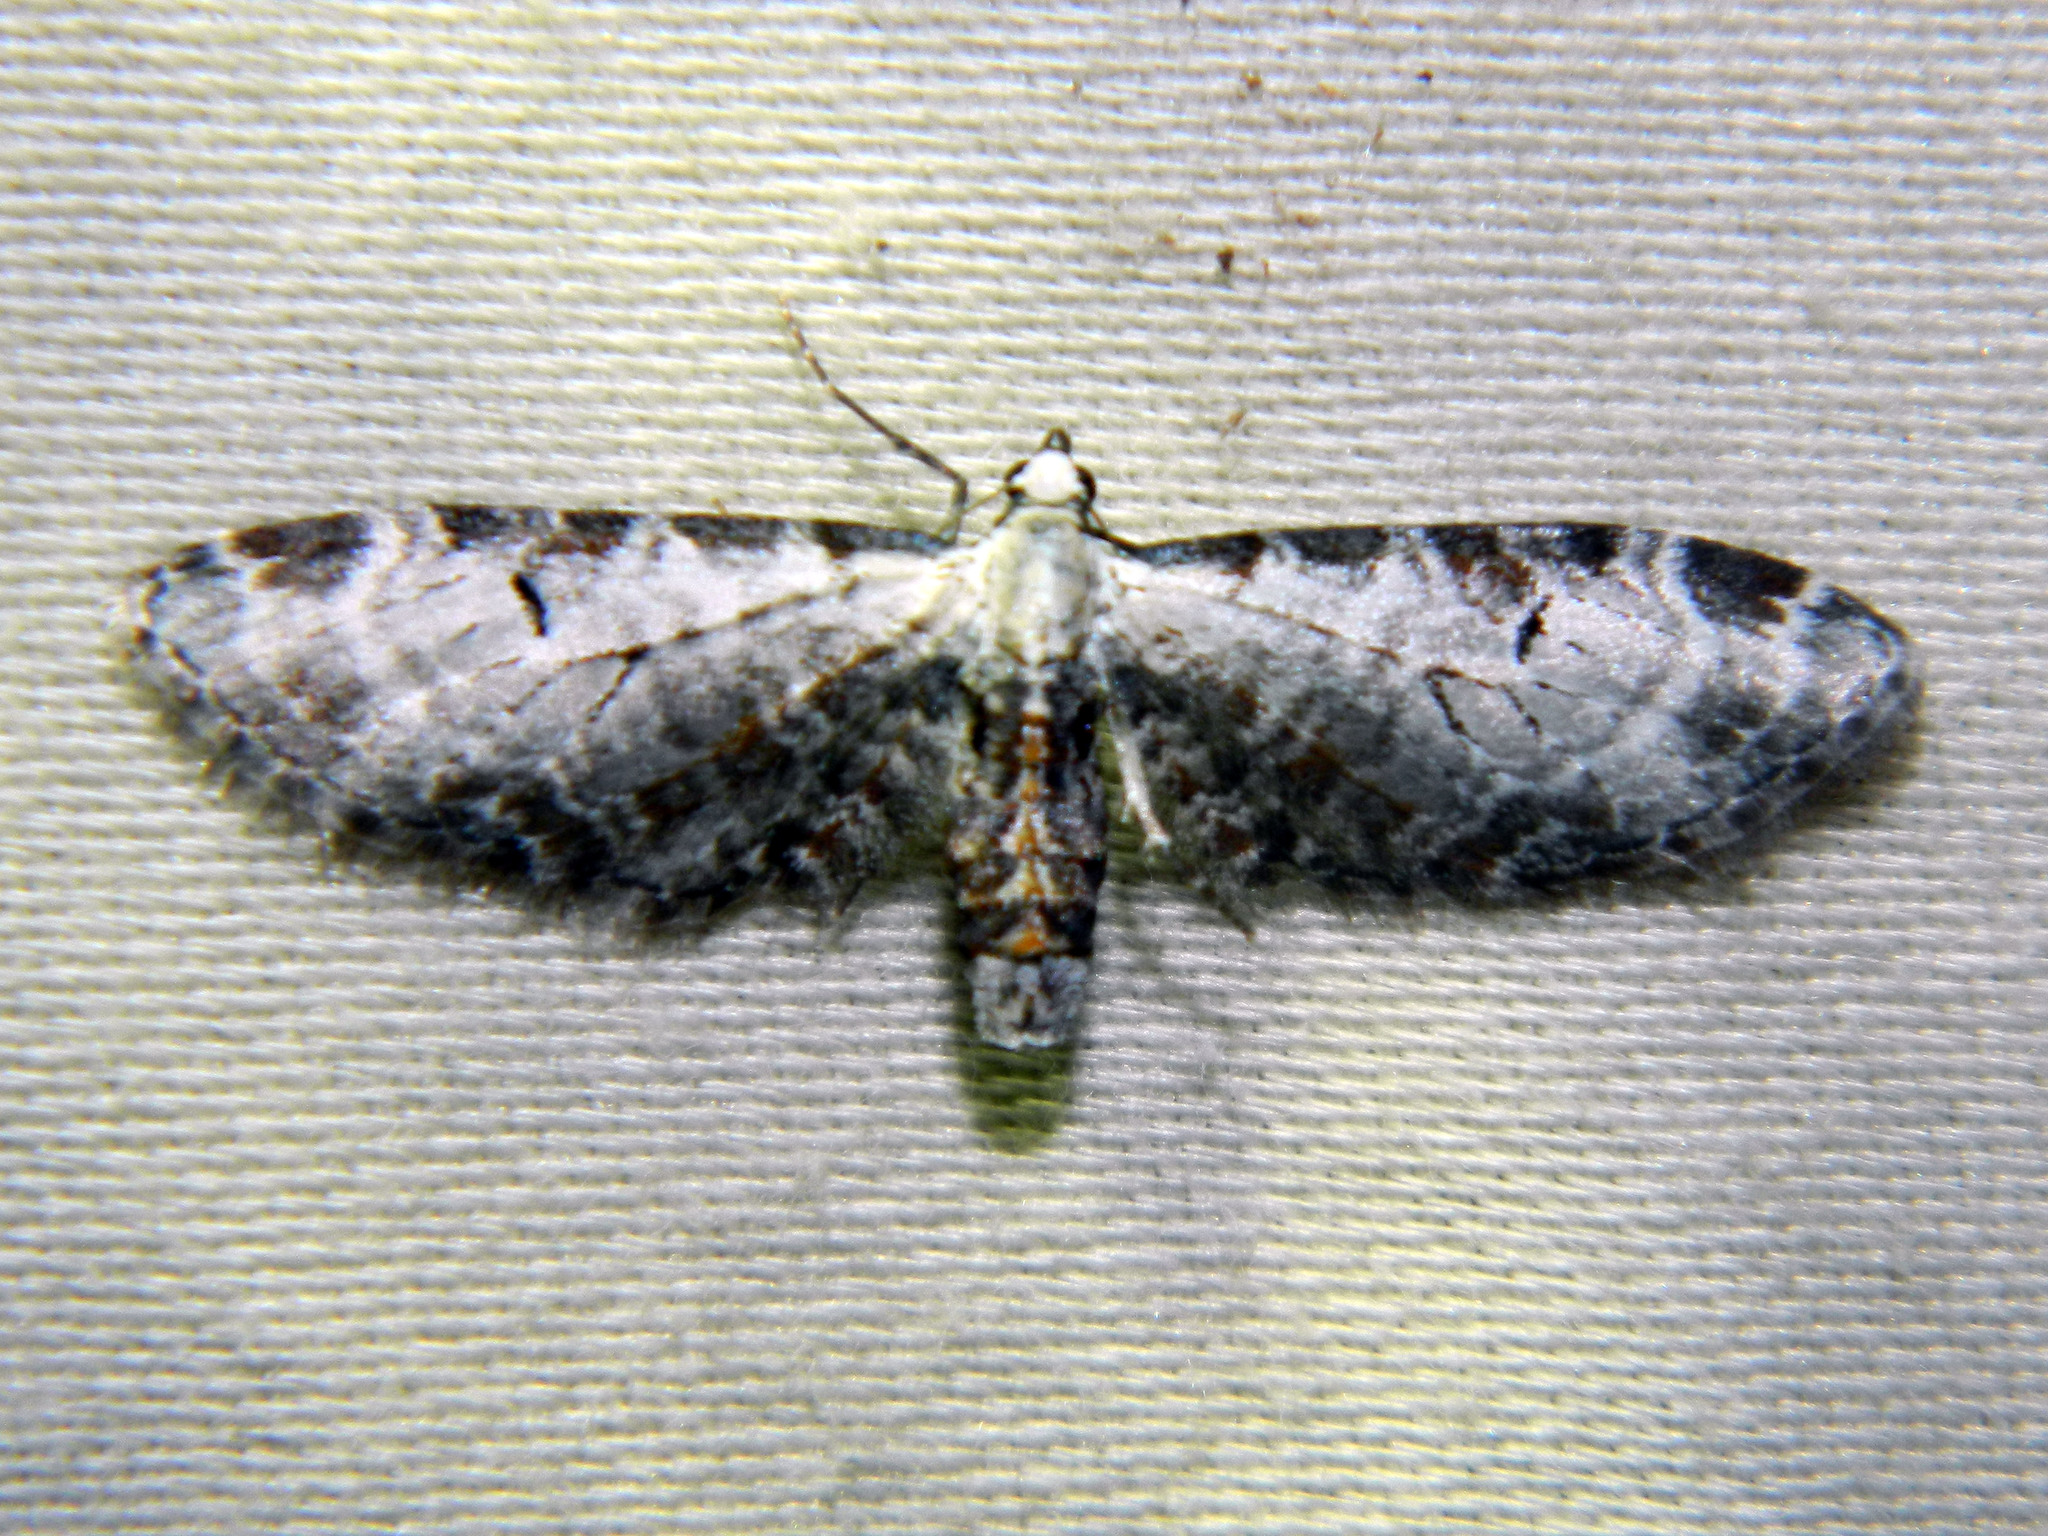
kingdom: Animalia
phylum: Arthropoda
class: Insecta
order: Lepidoptera
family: Geometridae
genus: Eupithecia
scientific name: Eupithecia ravocostaliata
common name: Great varigated pug
